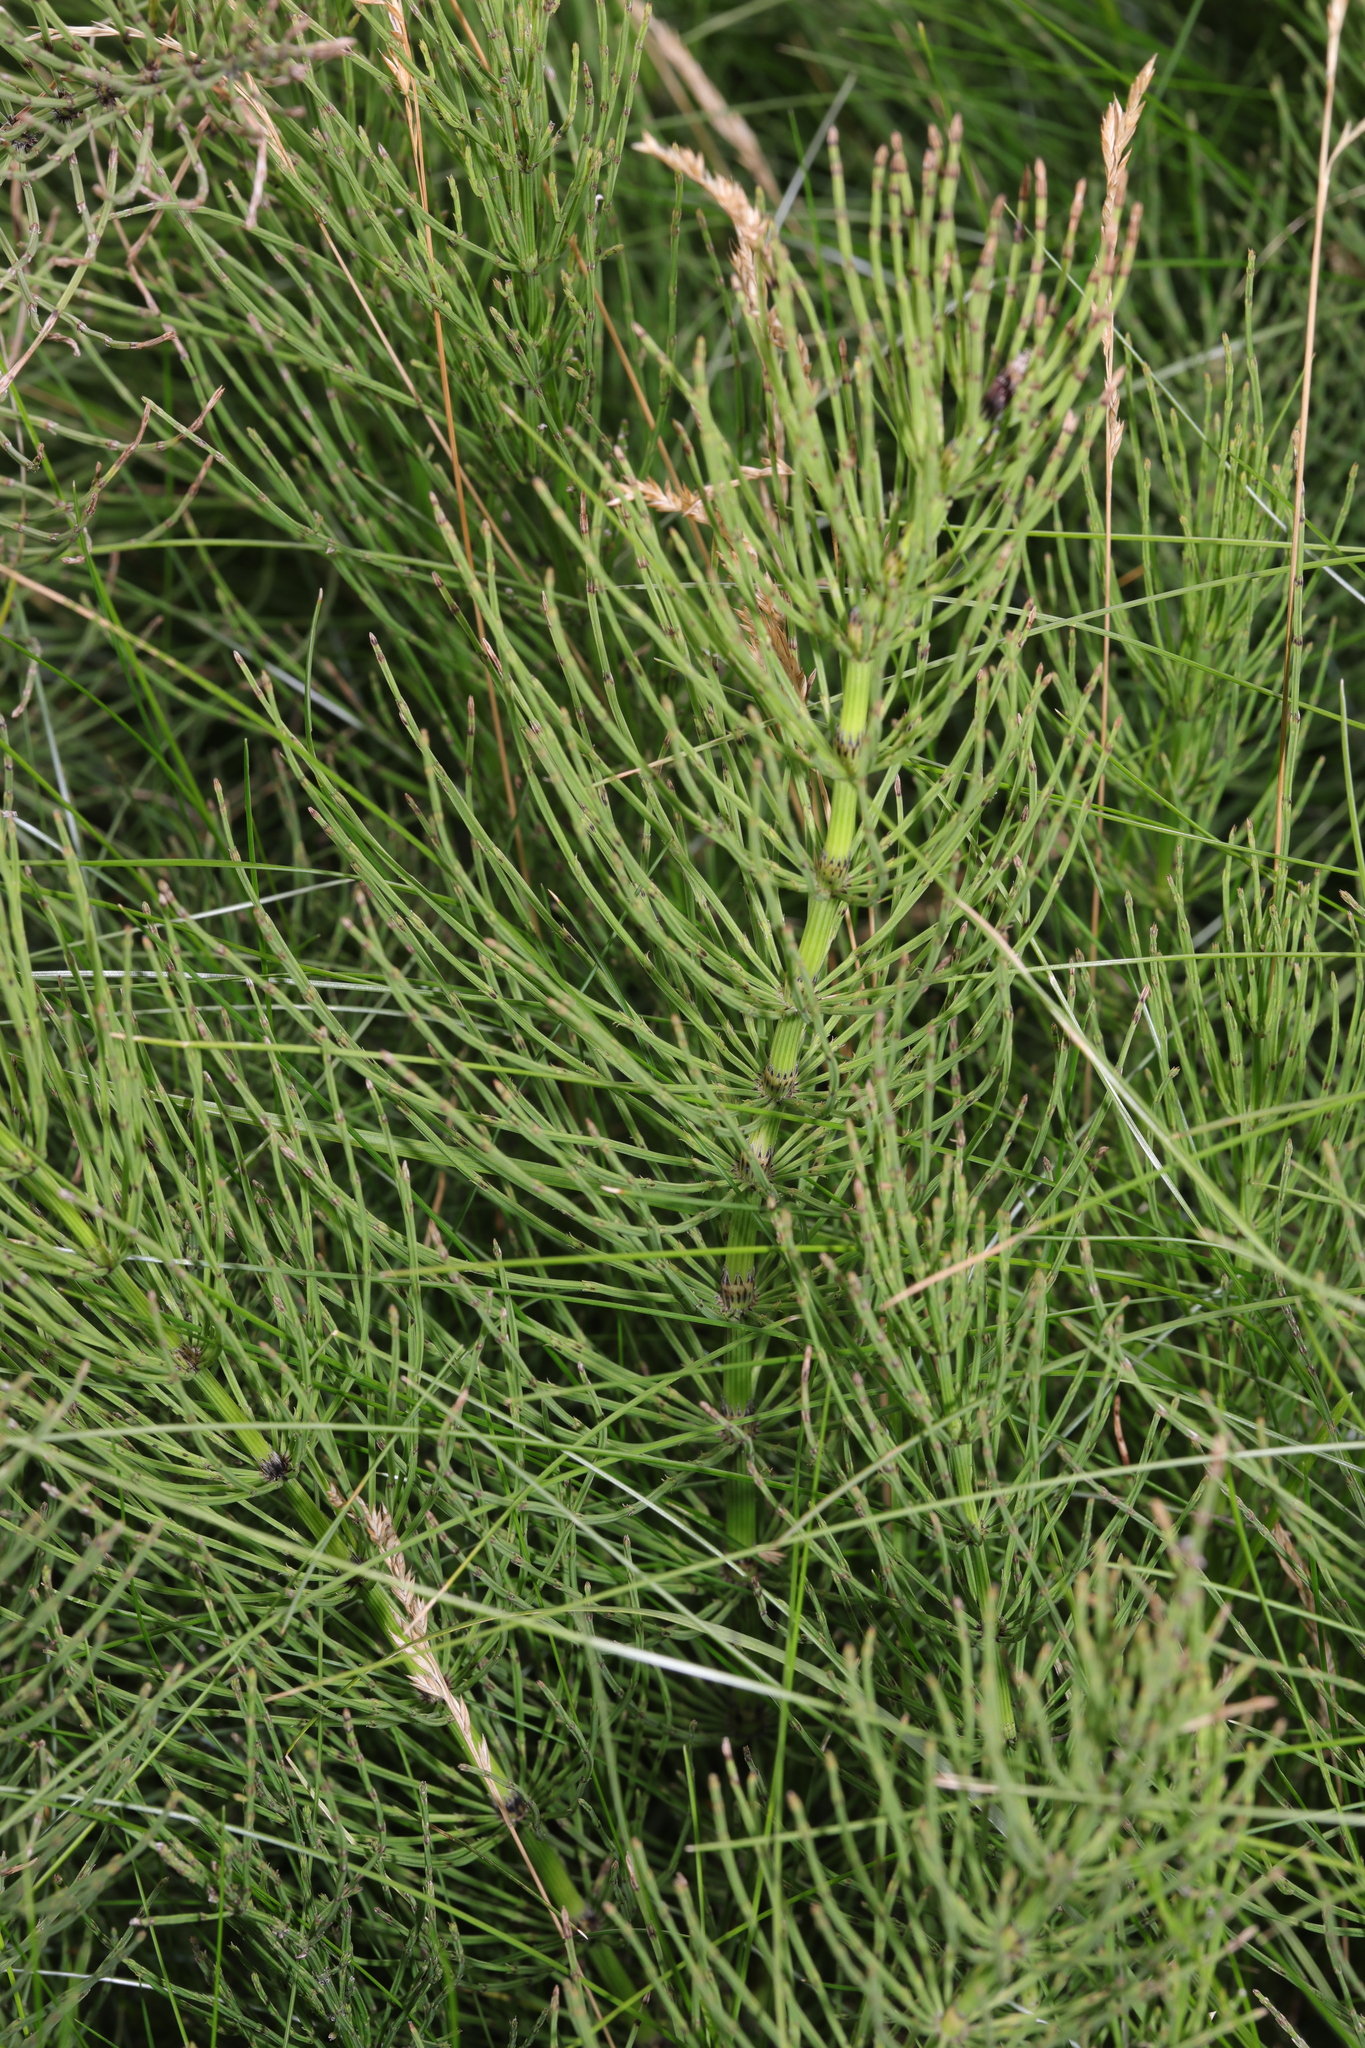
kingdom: Plantae
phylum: Tracheophyta
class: Polypodiopsida
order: Equisetales
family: Equisetaceae
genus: Equisetum
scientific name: Equisetum arvense
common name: Field horsetail
